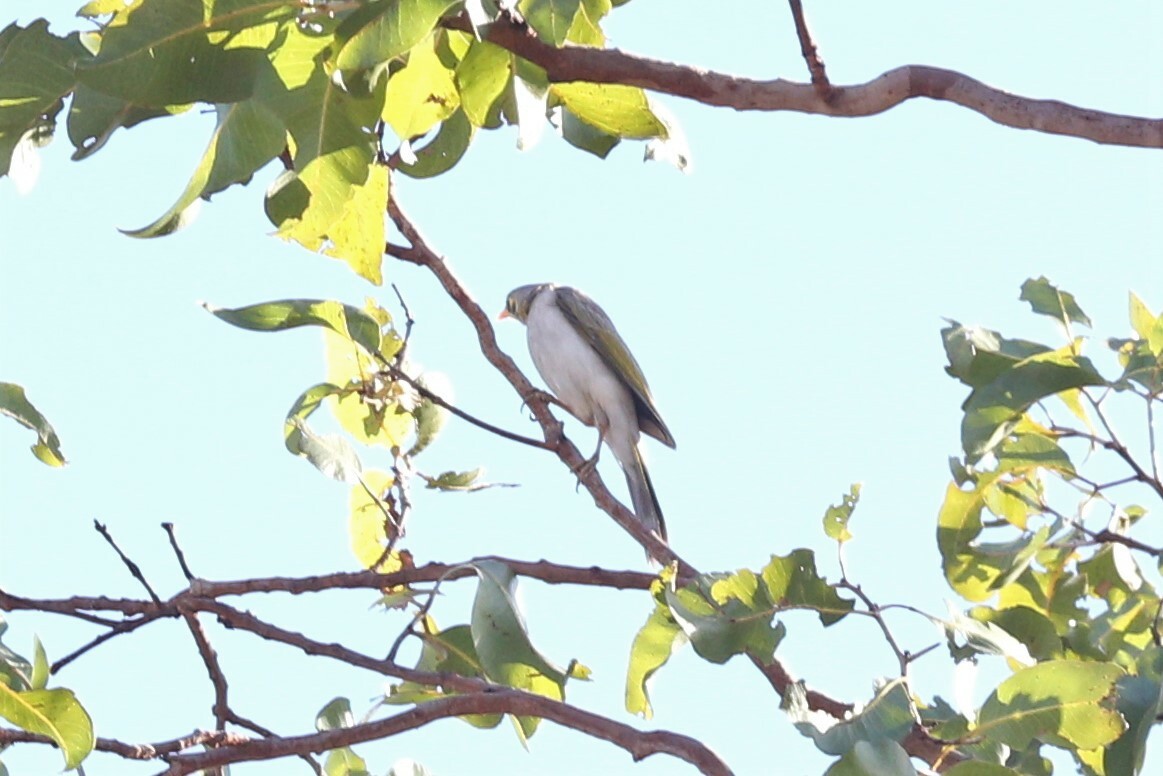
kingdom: Animalia
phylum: Chordata
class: Aves
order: Passeriformes
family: Meliphagidae
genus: Manorina
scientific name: Manorina flavigula
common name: Yellow-throated miner
